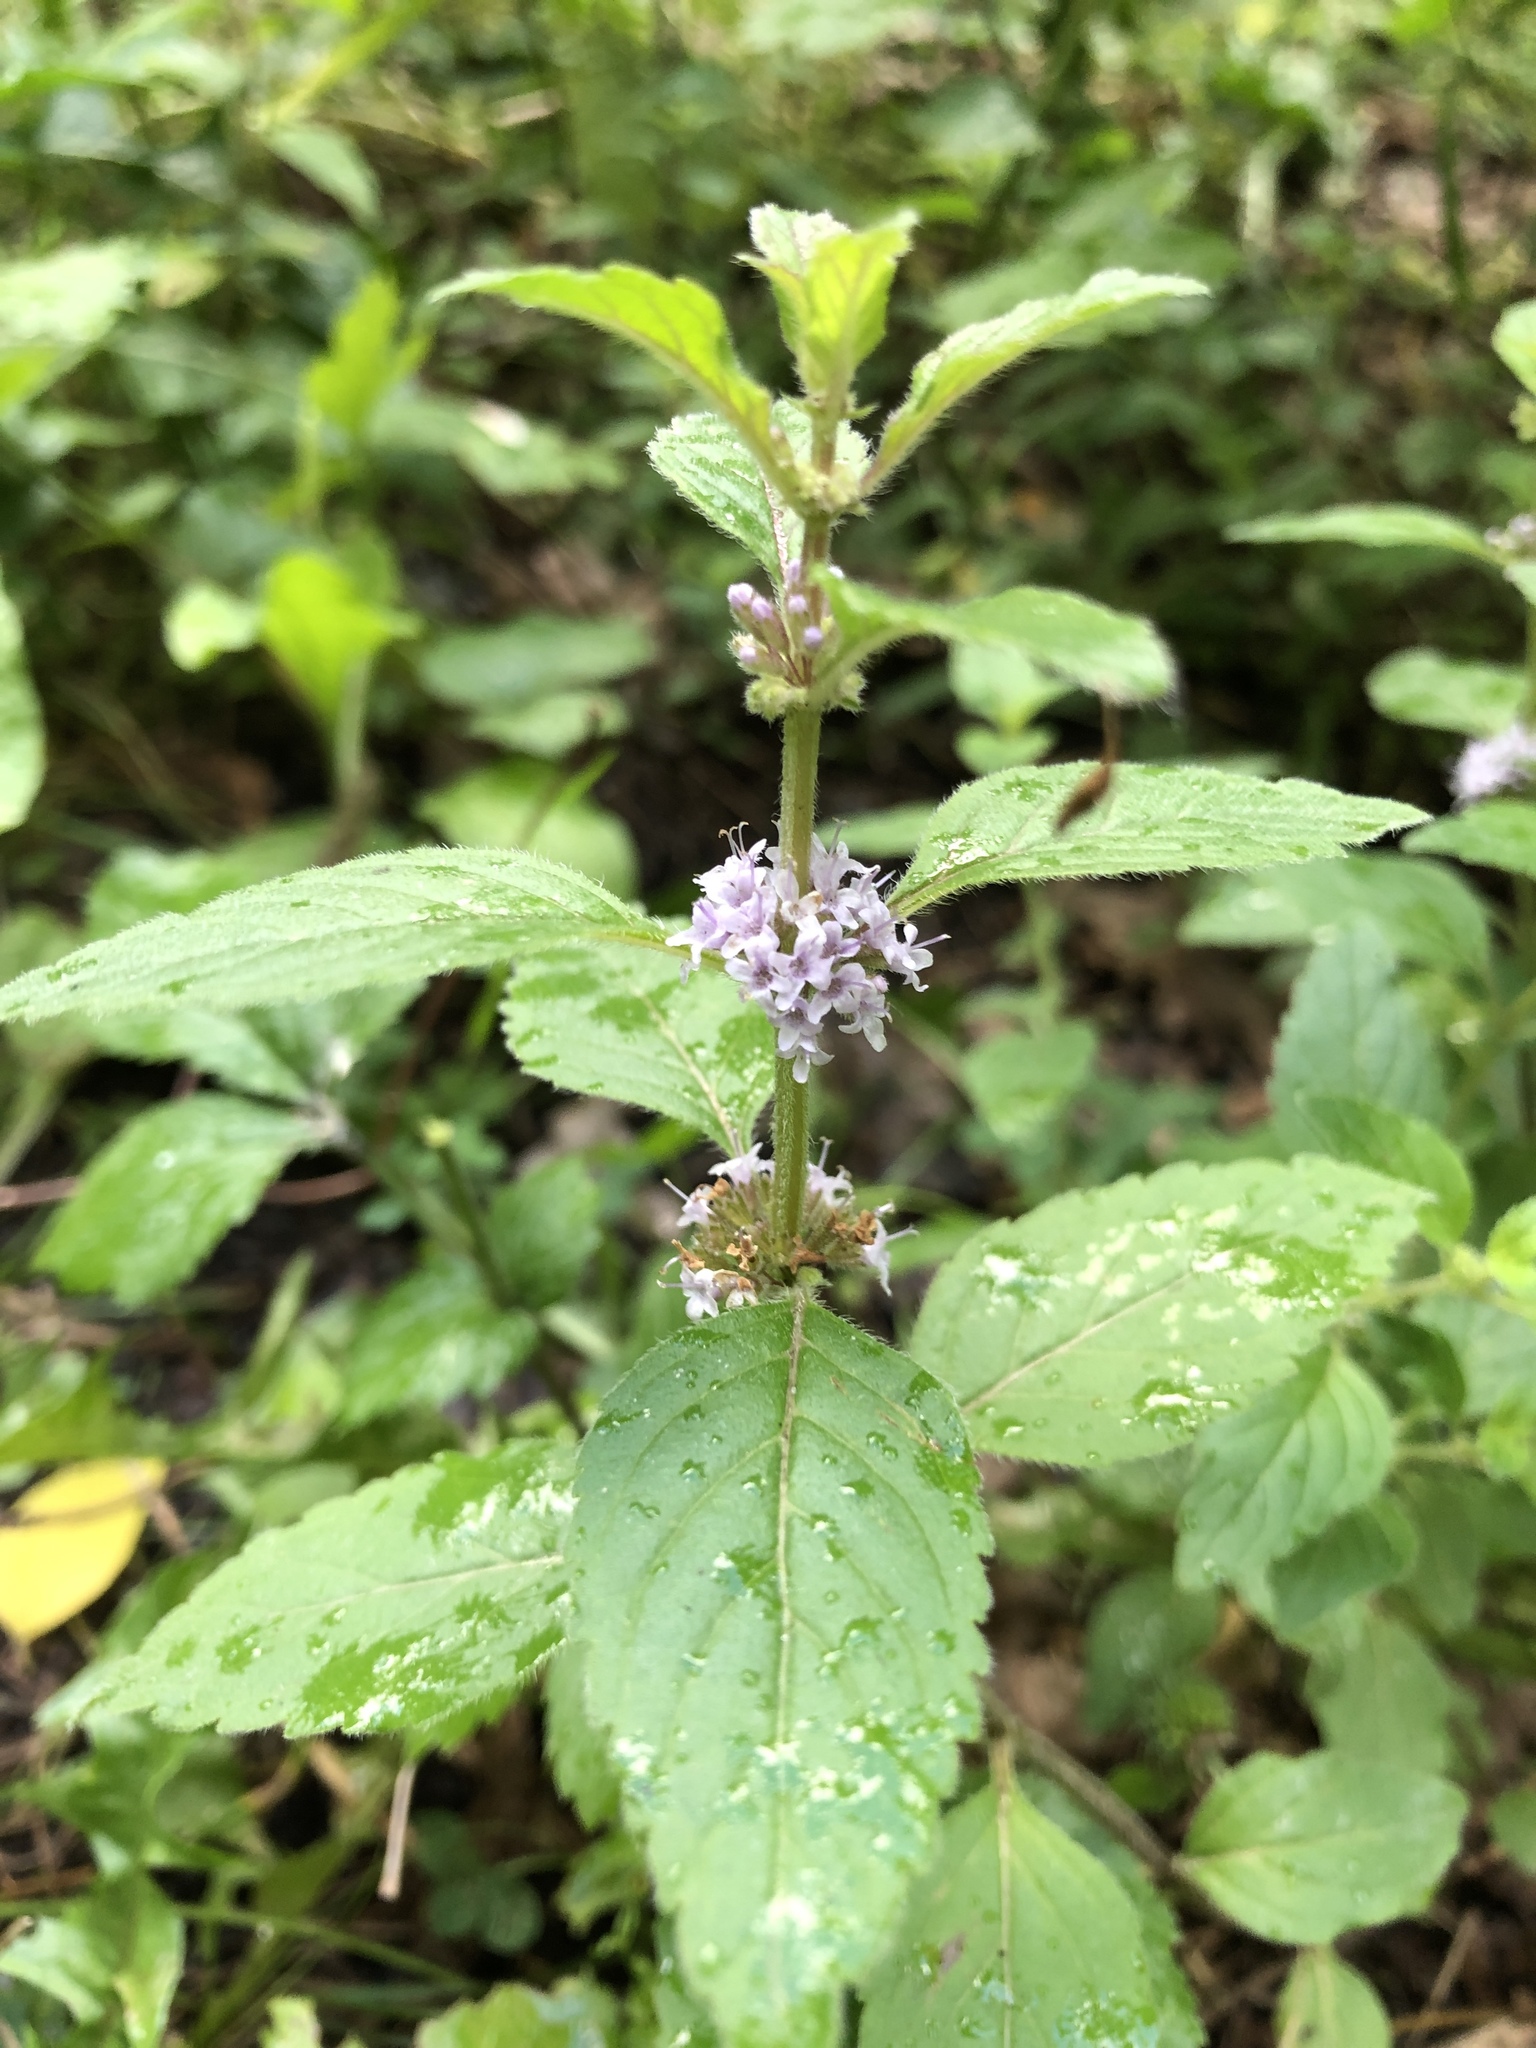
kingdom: Plantae
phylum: Tracheophyta
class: Magnoliopsida
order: Lamiales
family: Lamiaceae
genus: Mentha
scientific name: Mentha arvensis
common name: Corn mint
